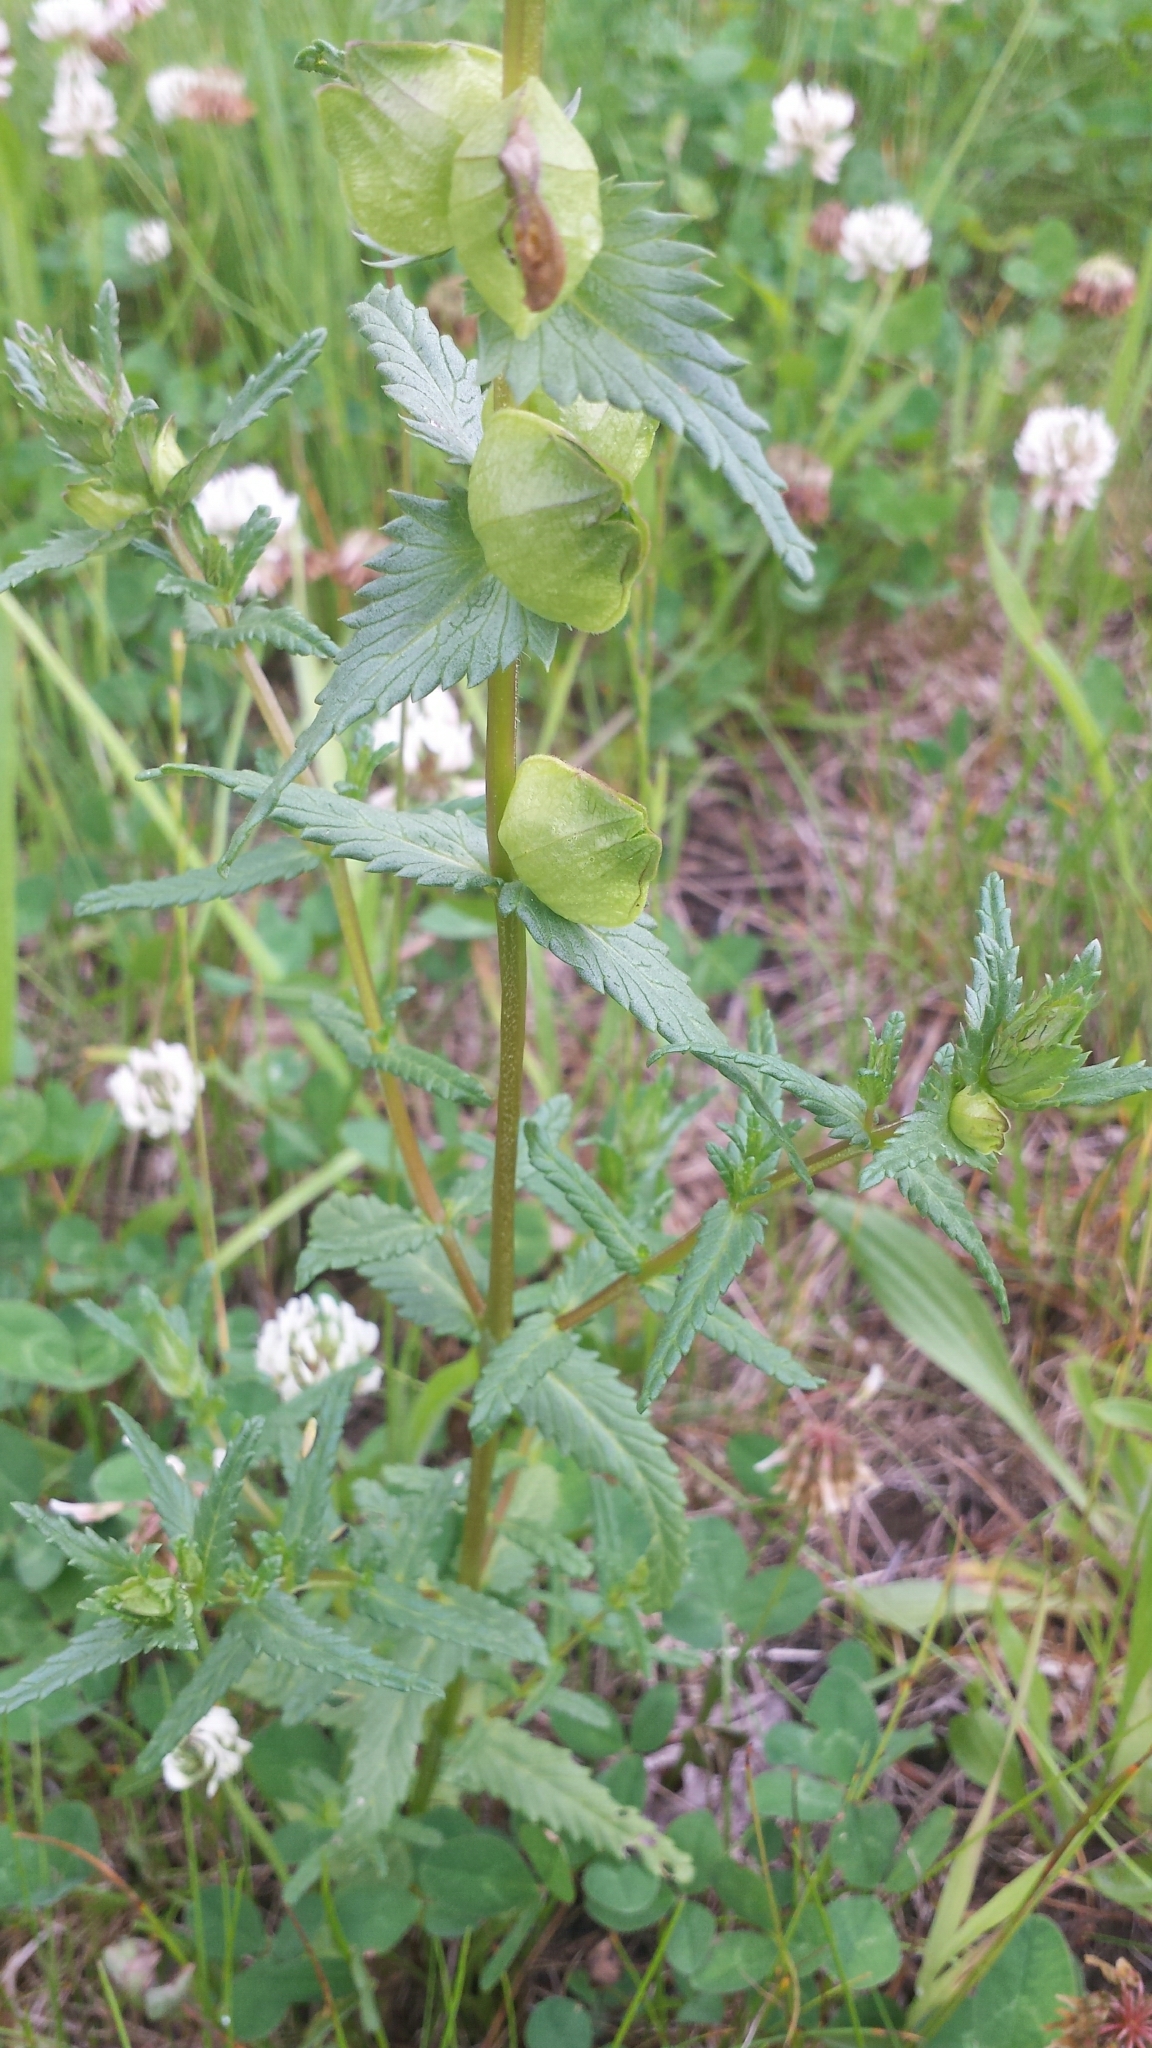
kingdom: Plantae
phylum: Tracheophyta
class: Magnoliopsida
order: Lamiales
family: Orobanchaceae
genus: Rhinanthus
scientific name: Rhinanthus minor
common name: Yellow-rattle
